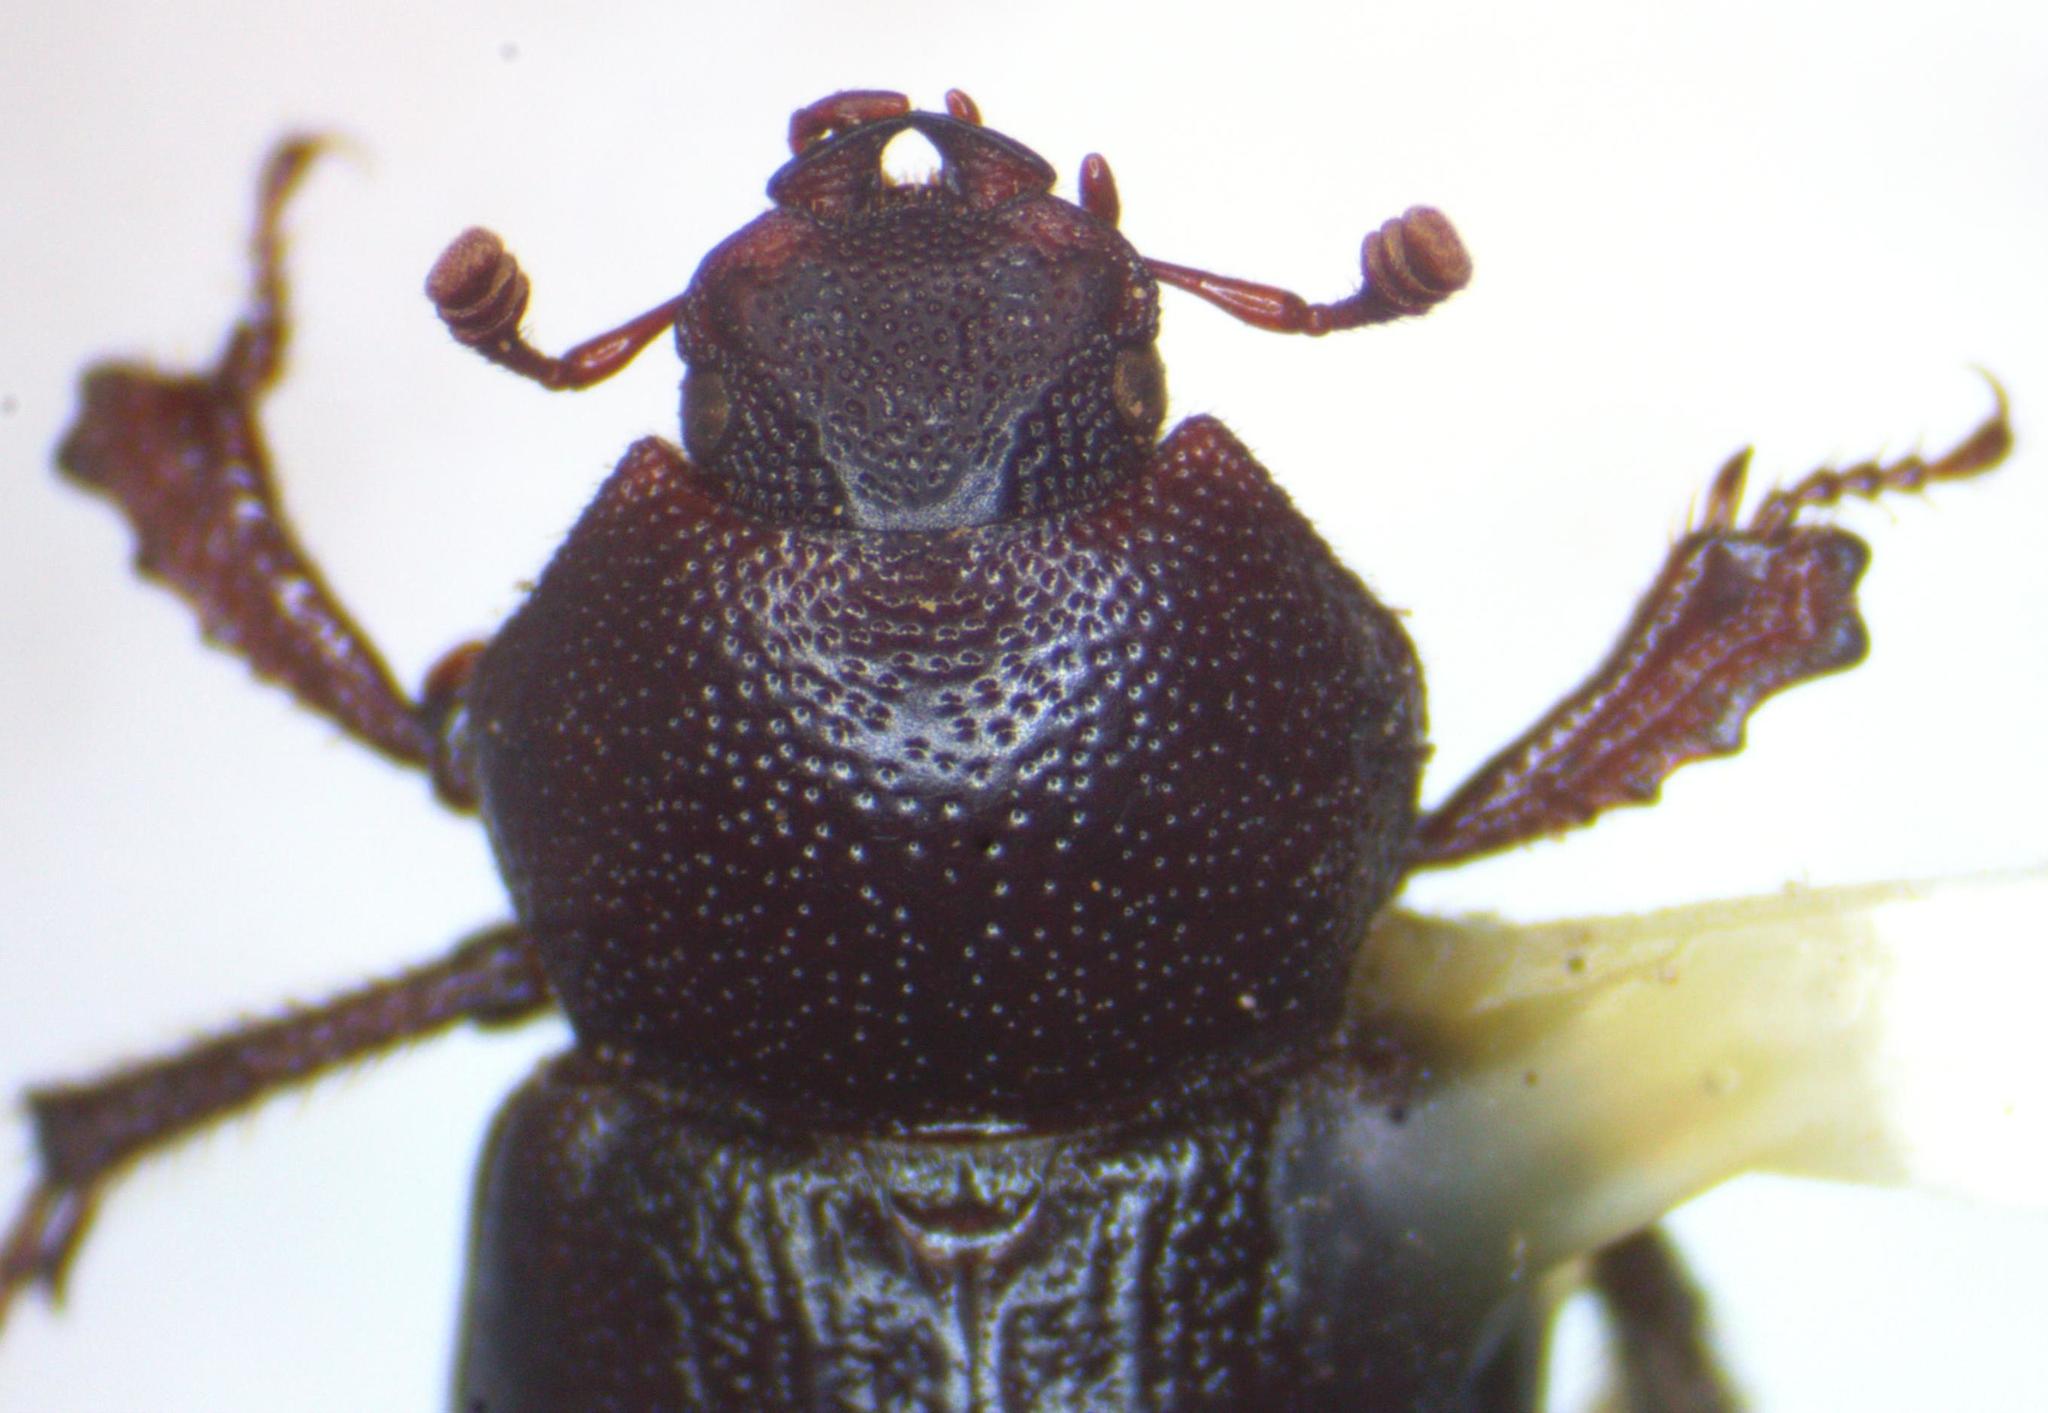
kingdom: Animalia
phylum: Arthropoda
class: Insecta
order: Coleoptera
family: Lucanidae
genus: Platyceroides
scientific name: Platyceroides keeni
